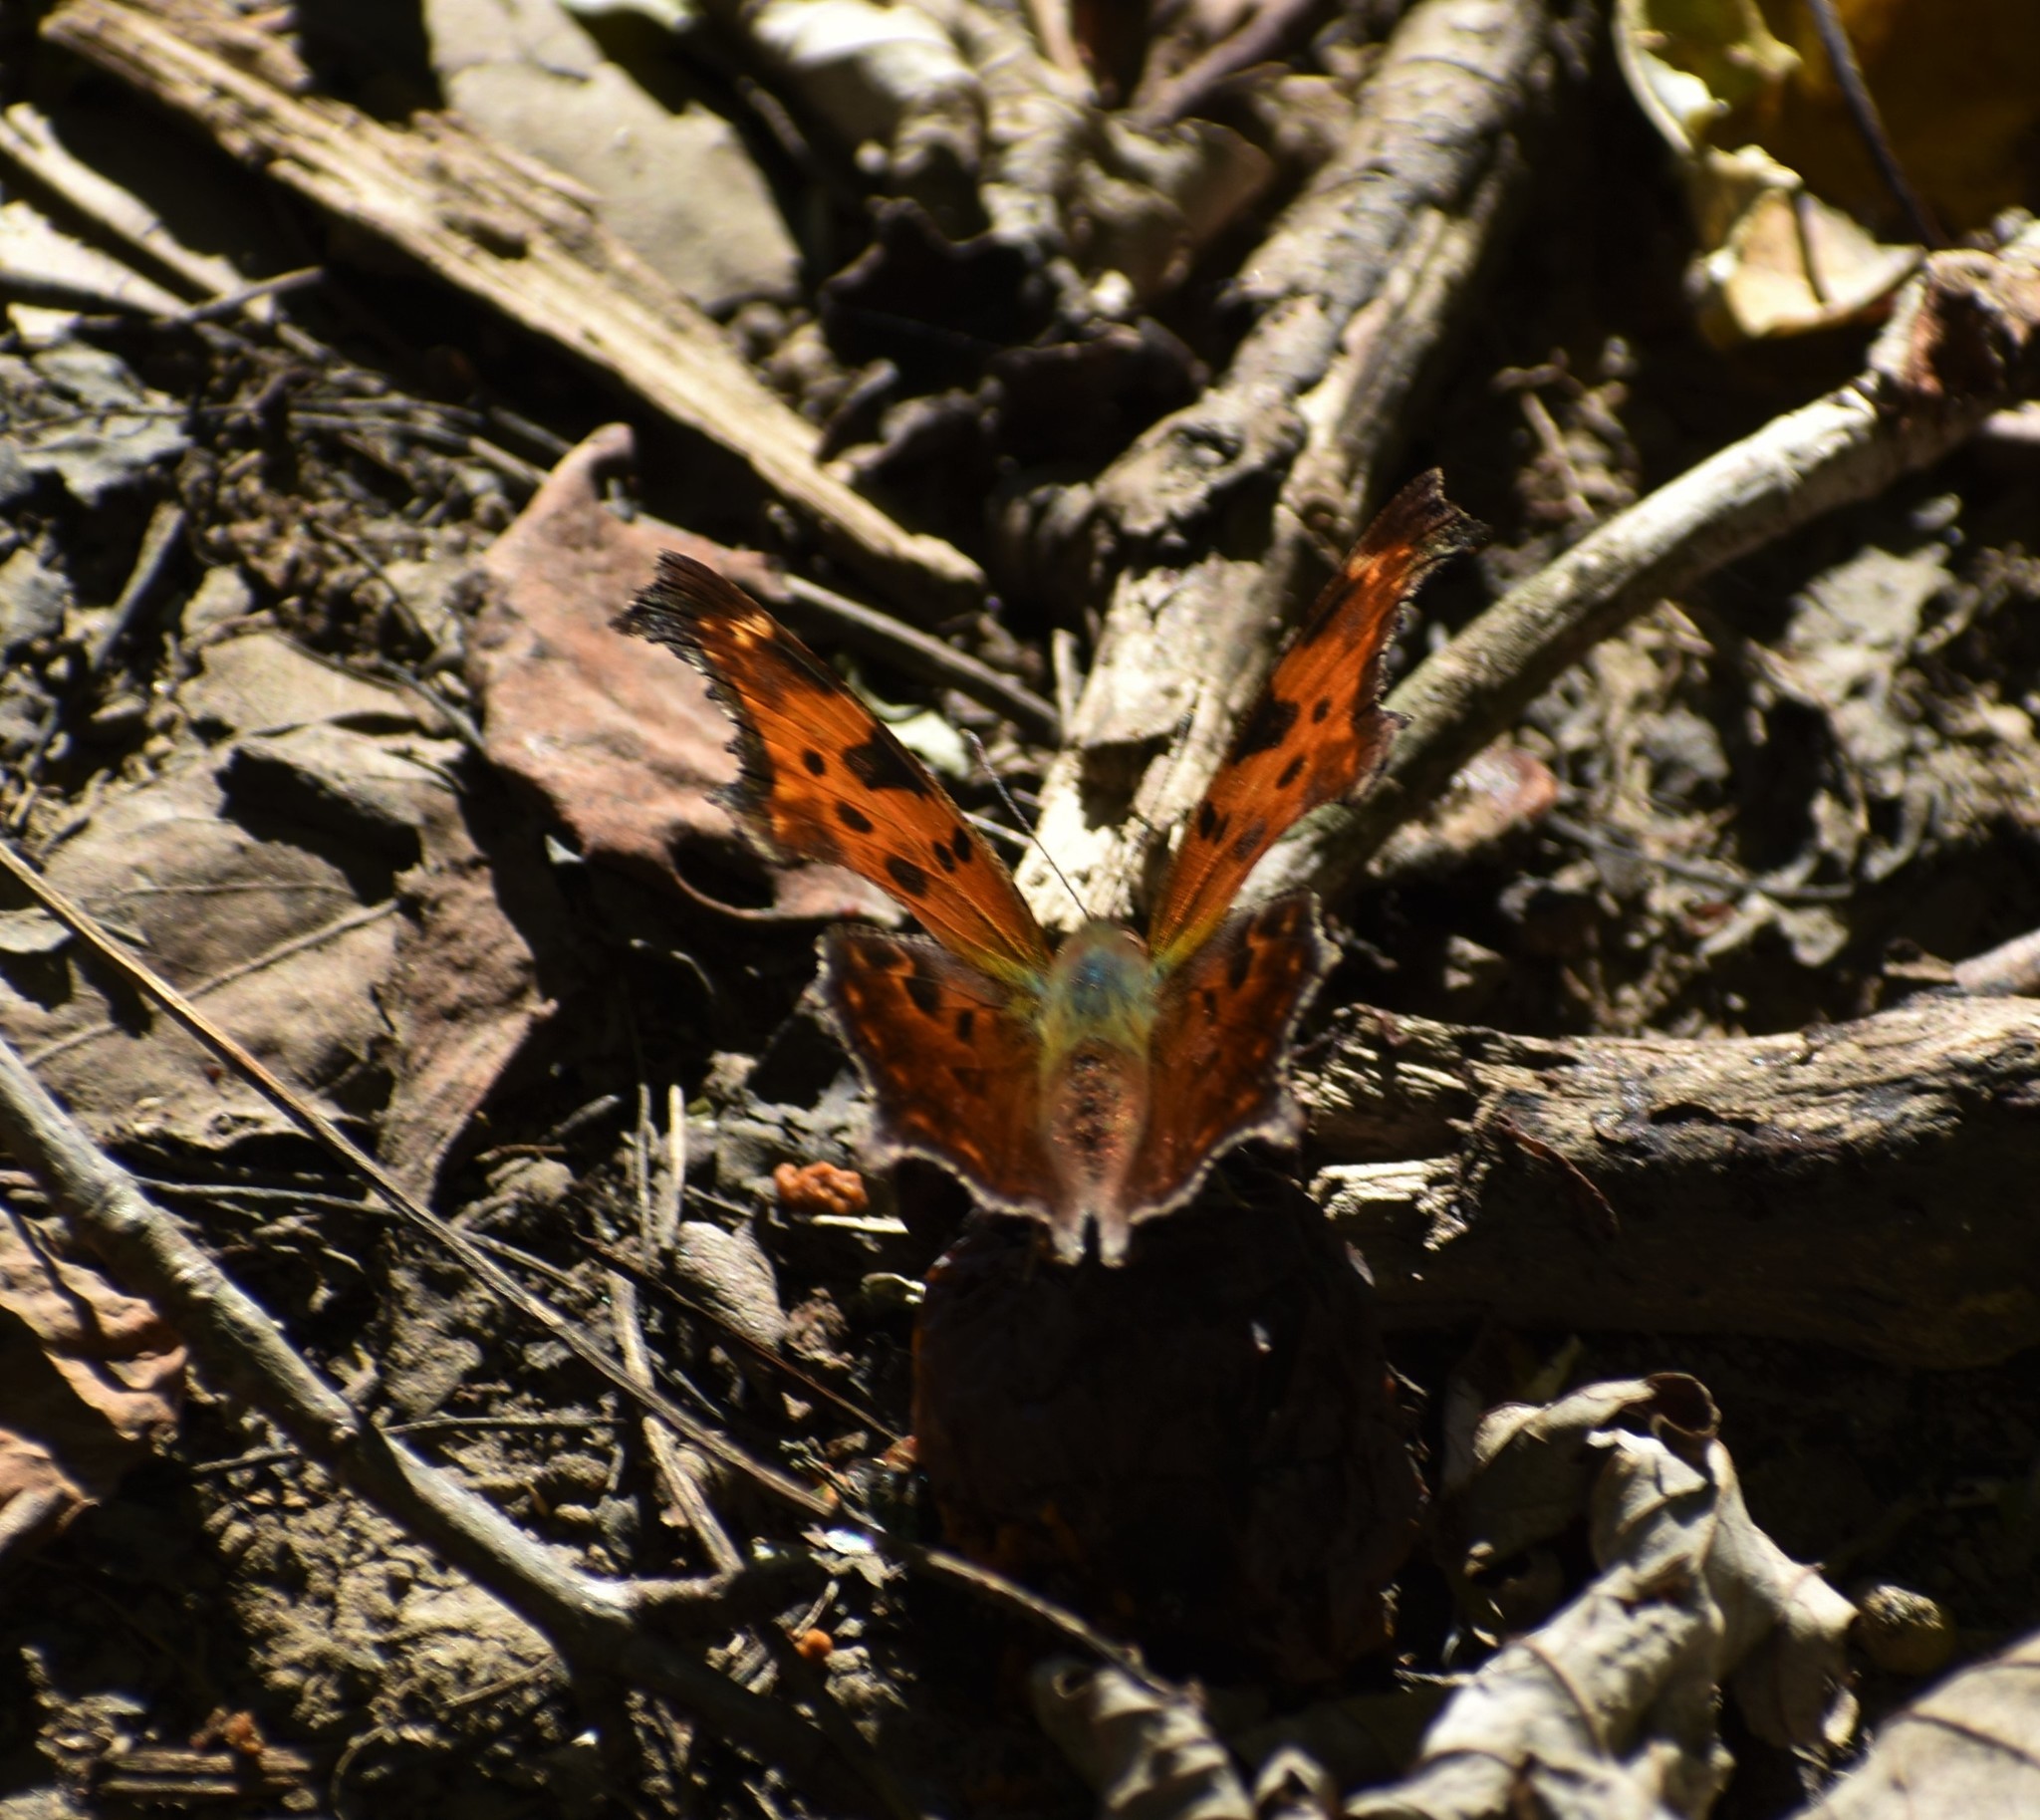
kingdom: Animalia
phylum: Arthropoda
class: Insecta
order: Lepidoptera
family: Nymphalidae
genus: Polygonia
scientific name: Polygonia comma
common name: Eastern comma
